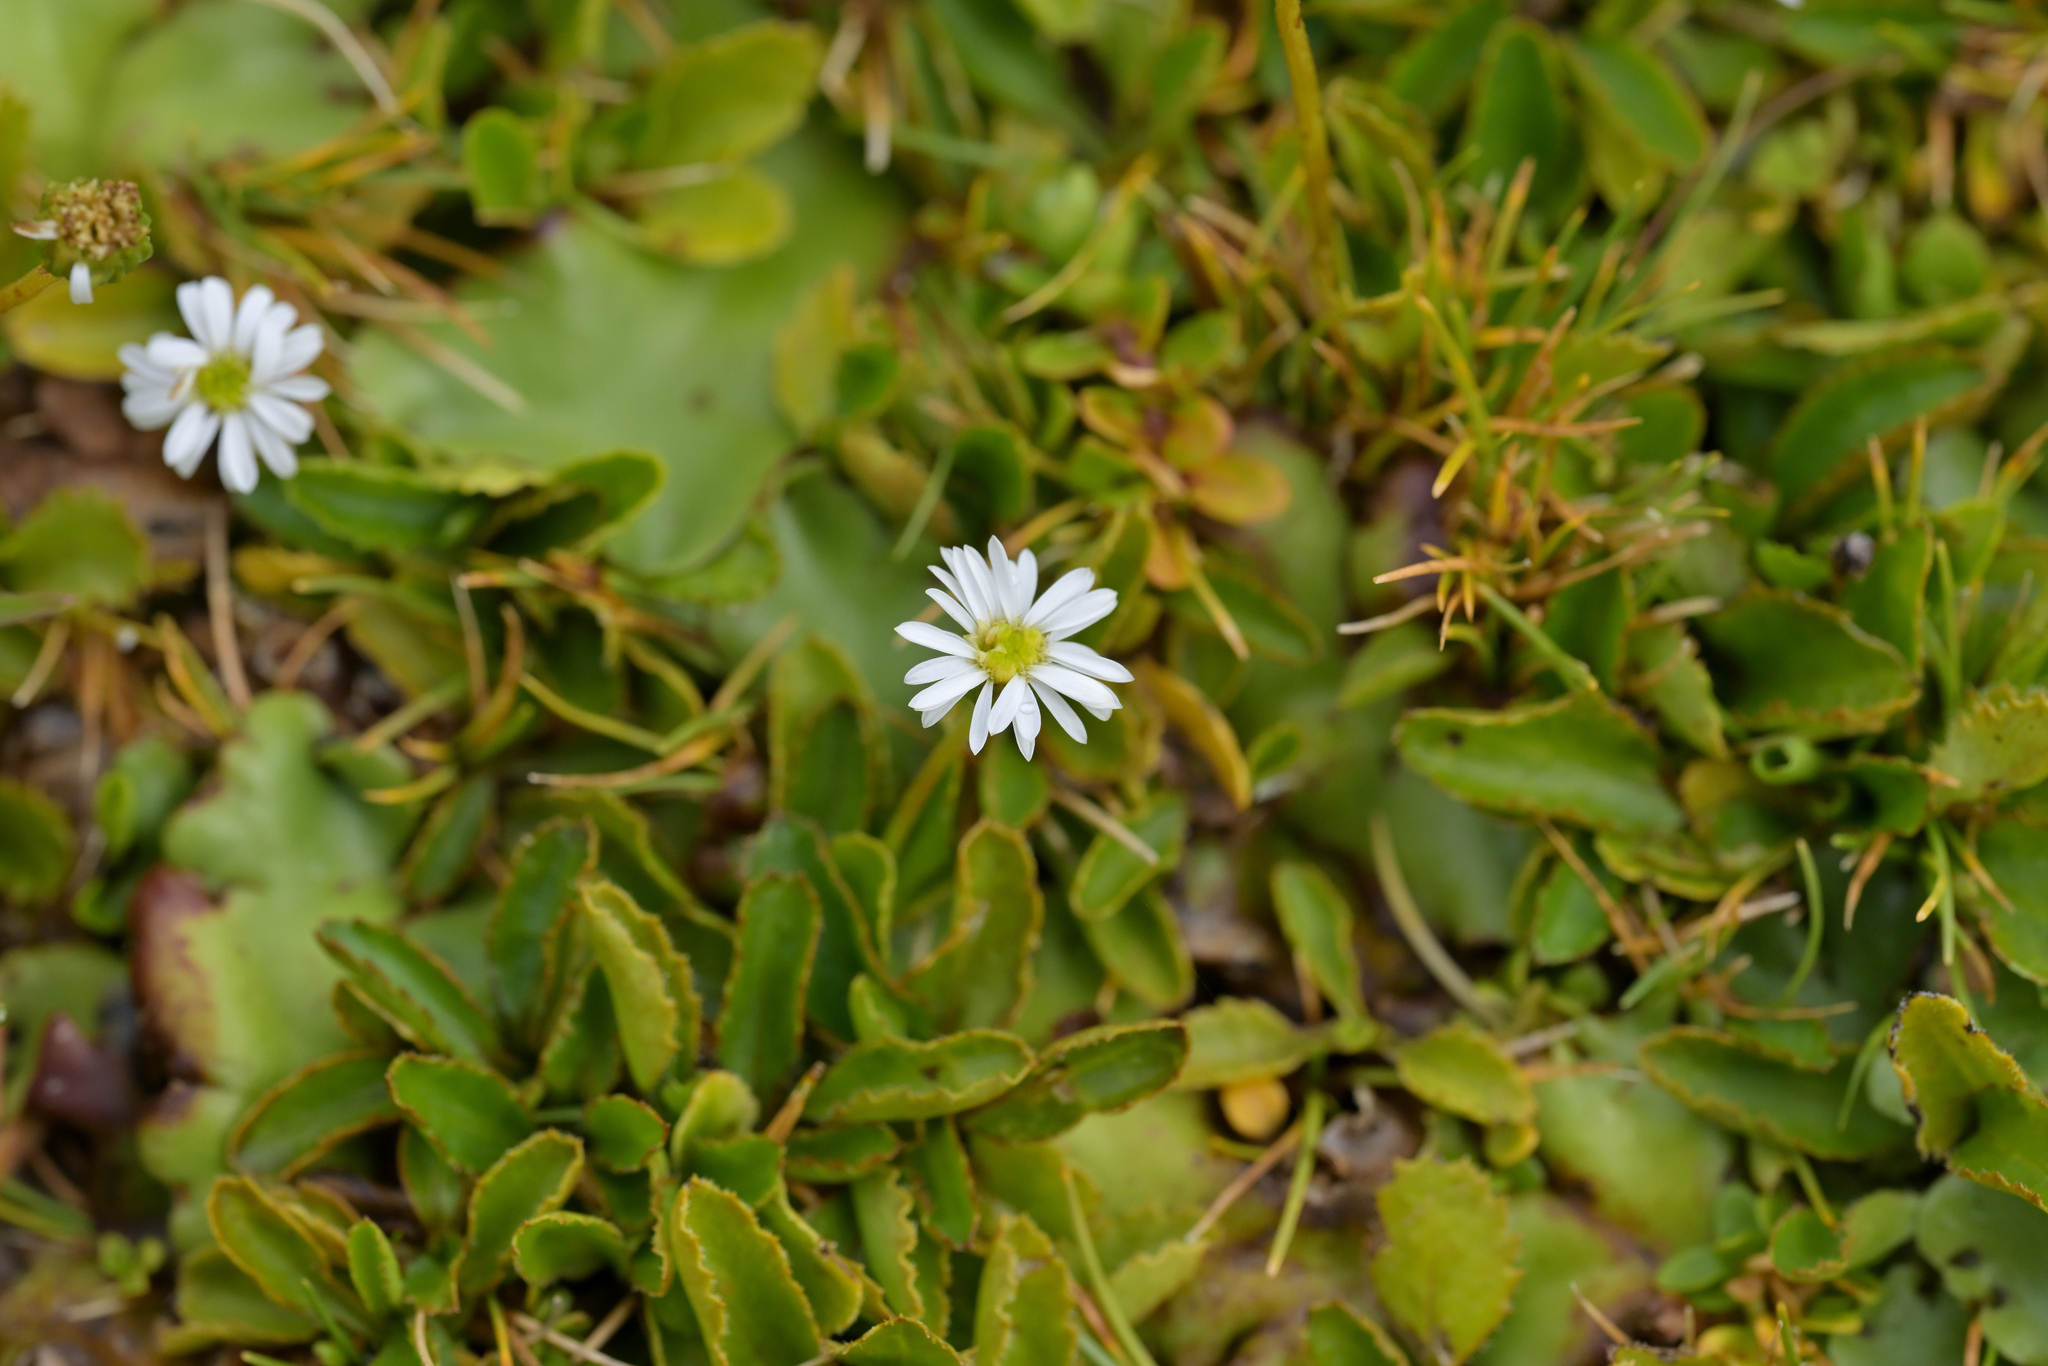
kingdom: Plantae
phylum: Tracheophyta
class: Magnoliopsida
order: Asterales
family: Asteraceae
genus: Lagenophora
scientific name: Lagenophora petiolata
